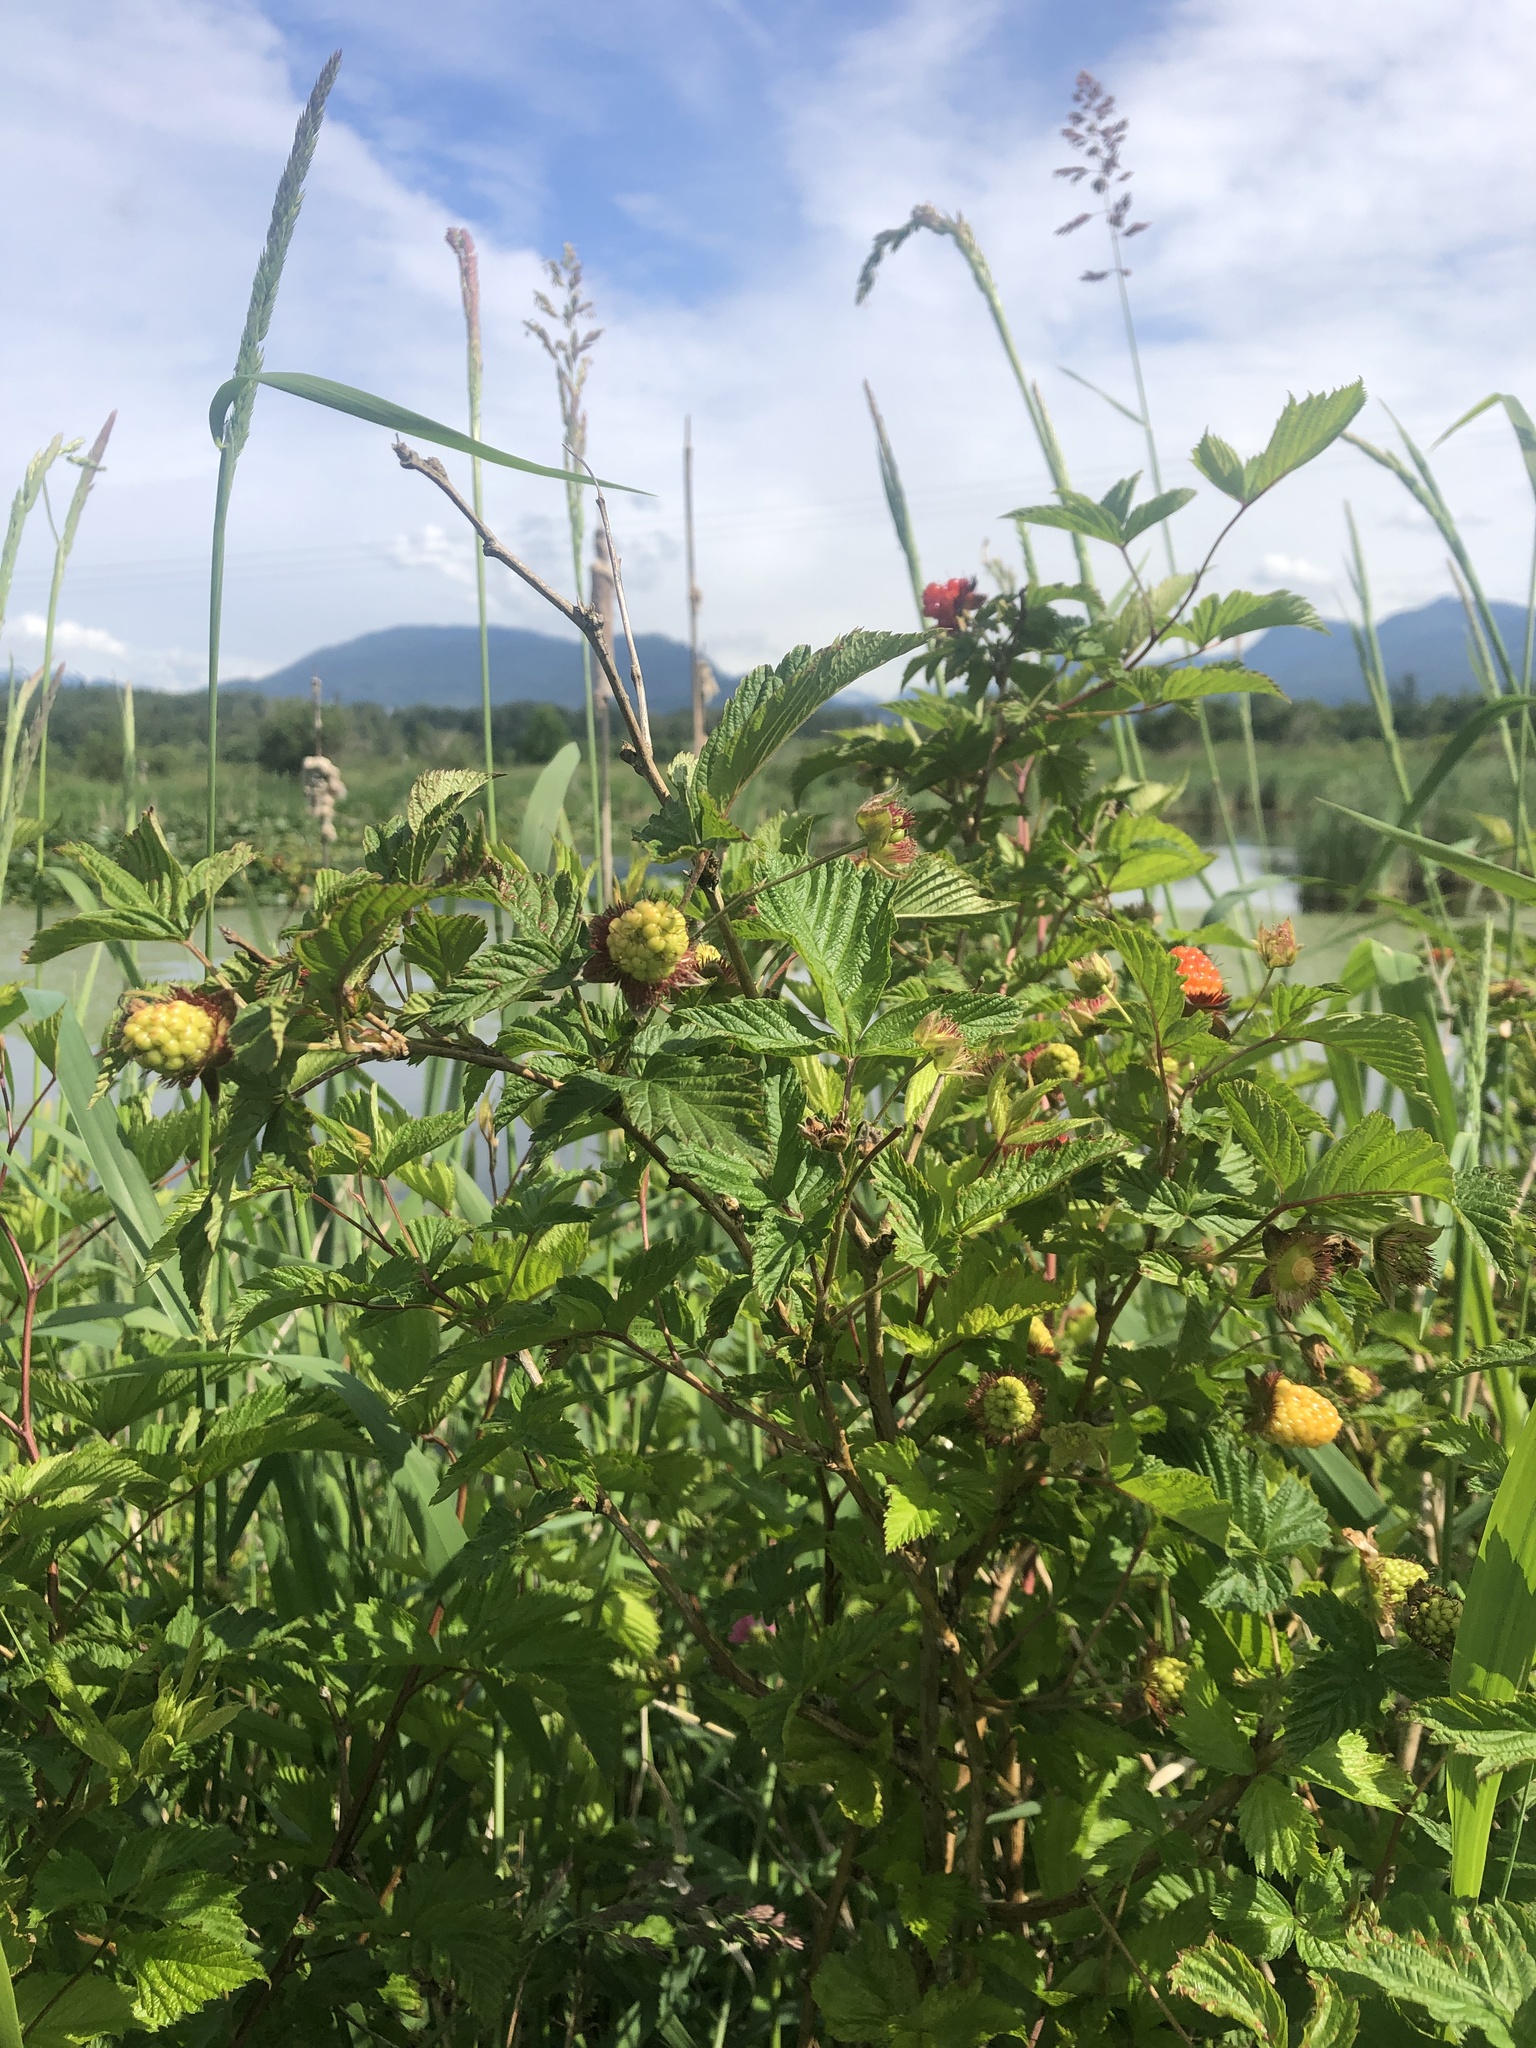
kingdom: Plantae
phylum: Tracheophyta
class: Magnoliopsida
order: Rosales
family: Rosaceae
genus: Rubus
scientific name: Rubus spectabilis
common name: Salmonberry
